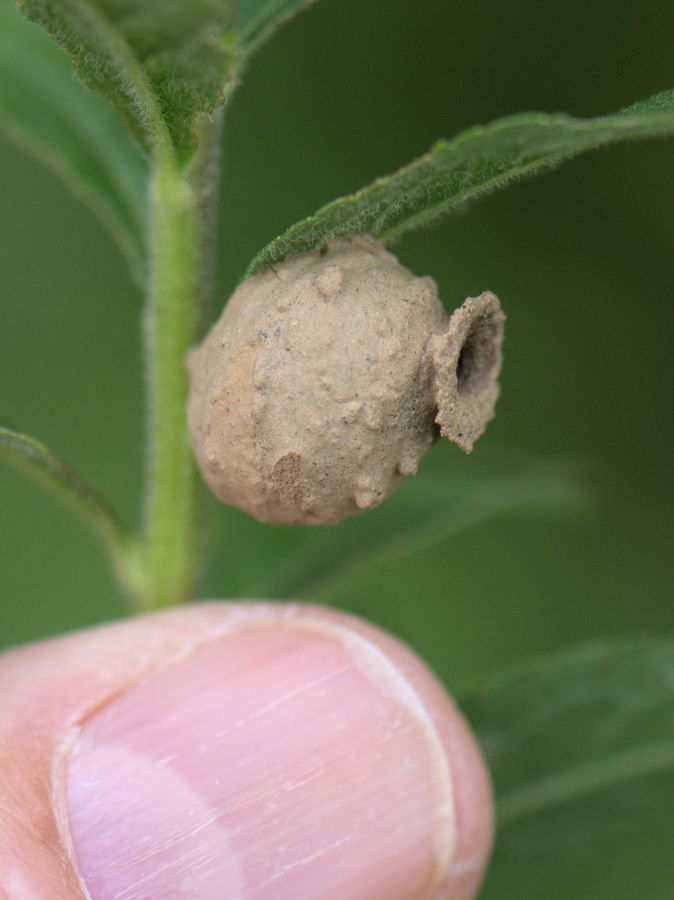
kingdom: Animalia
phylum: Arthropoda
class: Insecta
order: Hymenoptera
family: Vespidae
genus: Eumenes
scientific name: Eumenes
